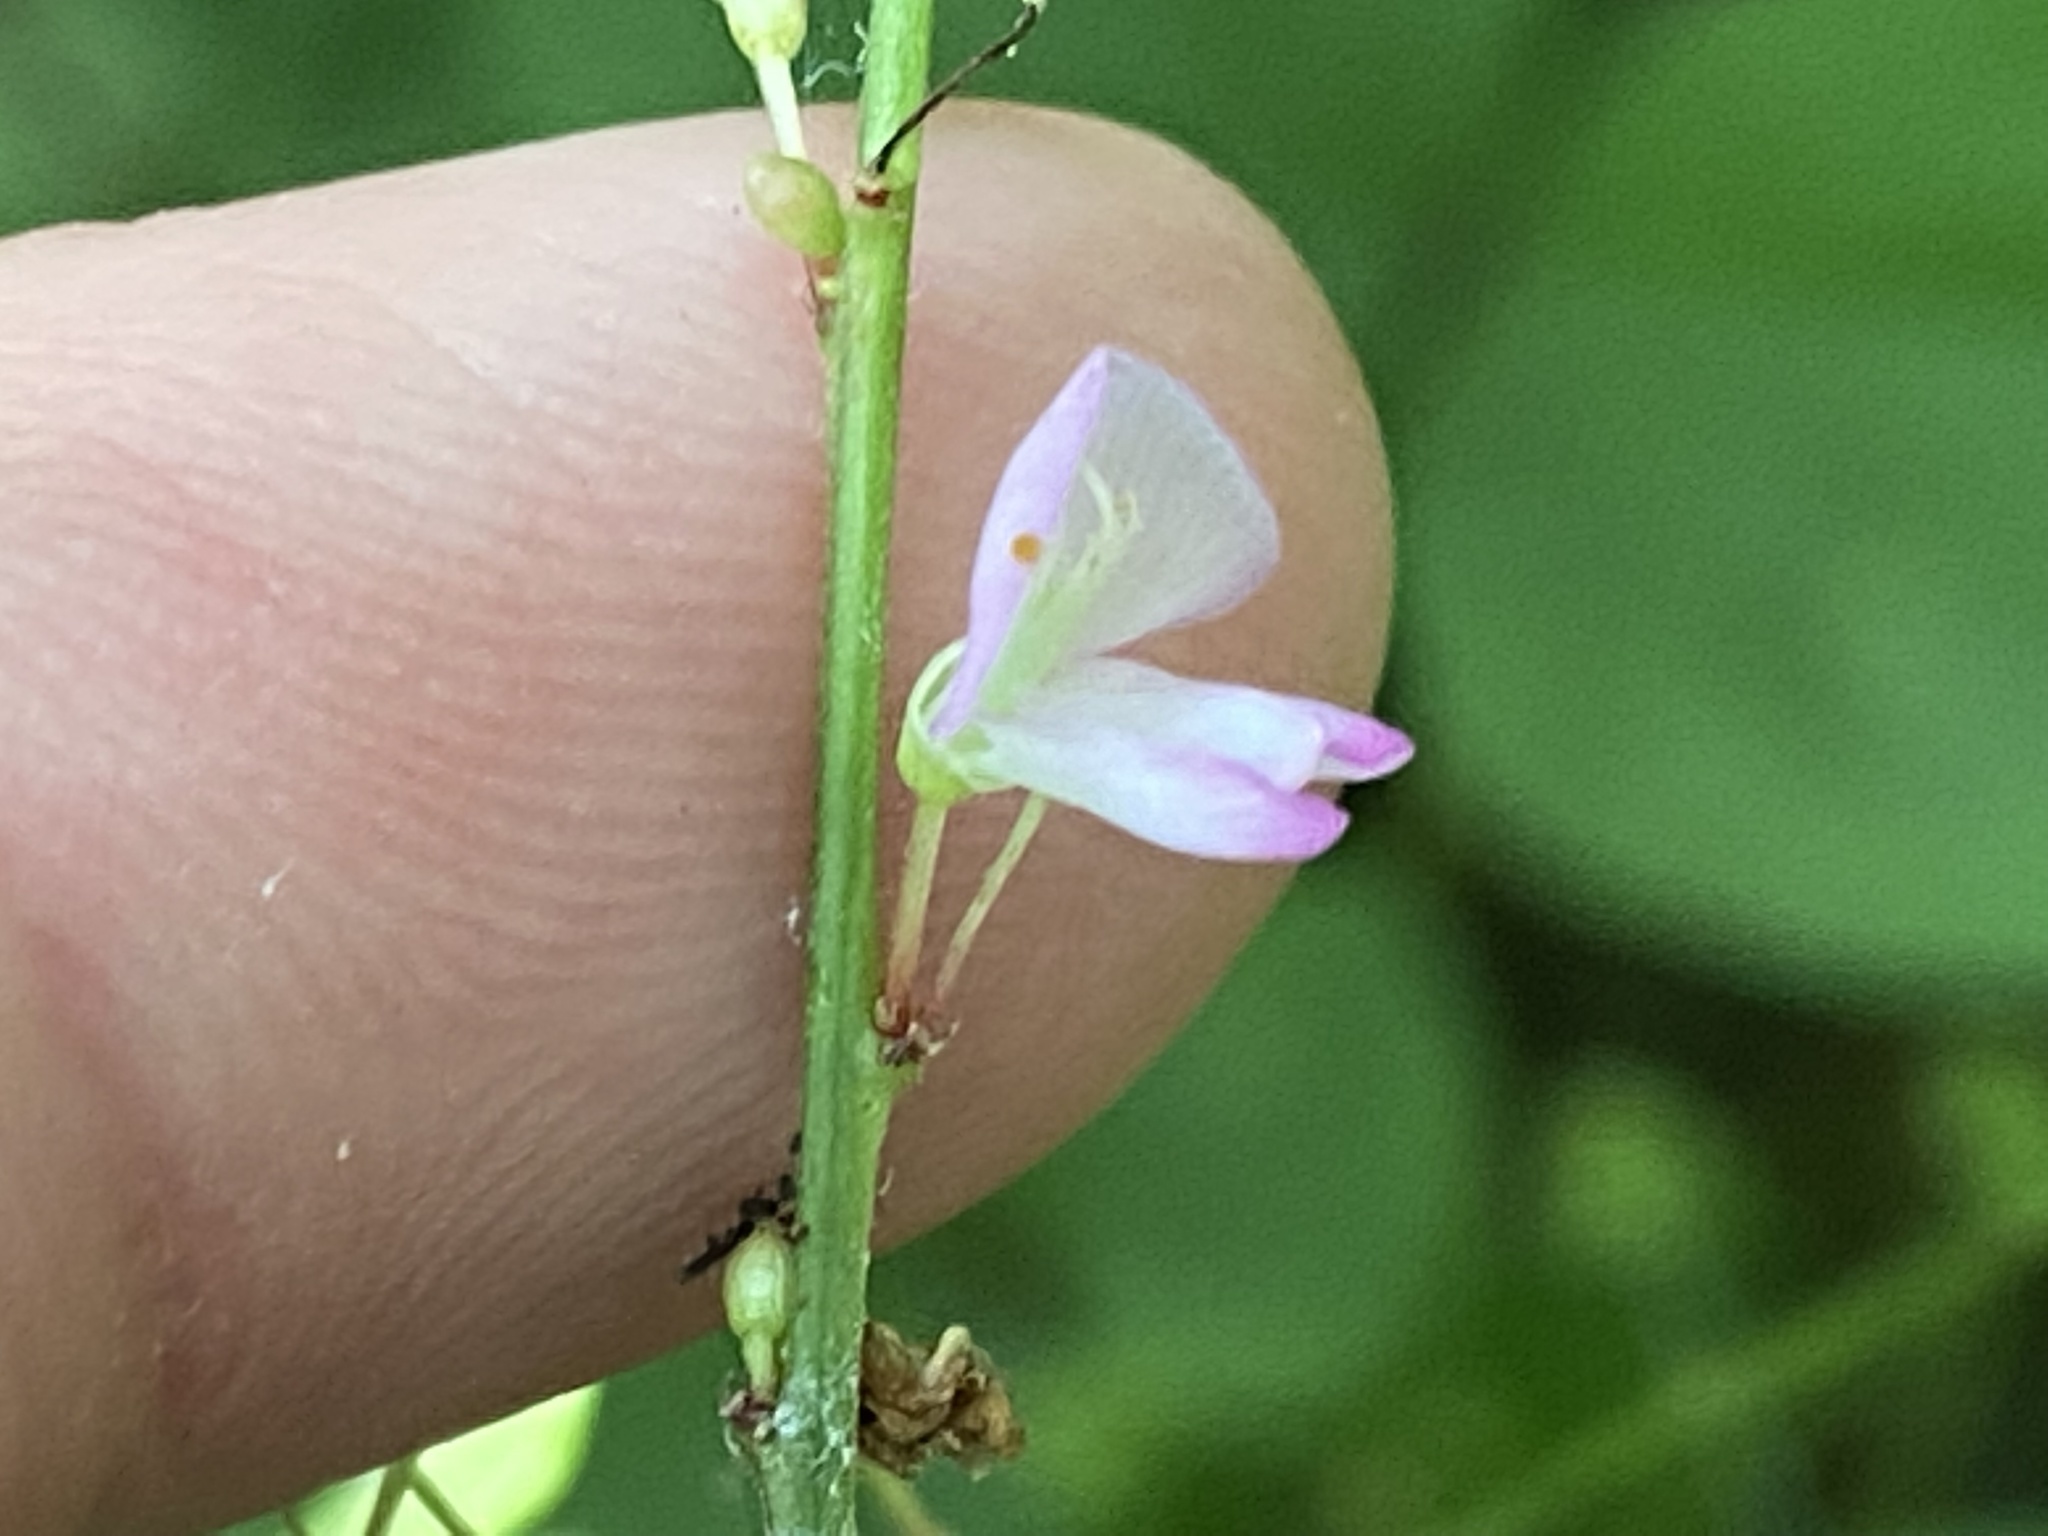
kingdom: Plantae
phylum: Tracheophyta
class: Magnoliopsida
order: Fabales
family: Fabaceae
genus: Hylodesmum
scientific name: Hylodesmum glutinosum
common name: Clustered-leaved tick-trefoil
